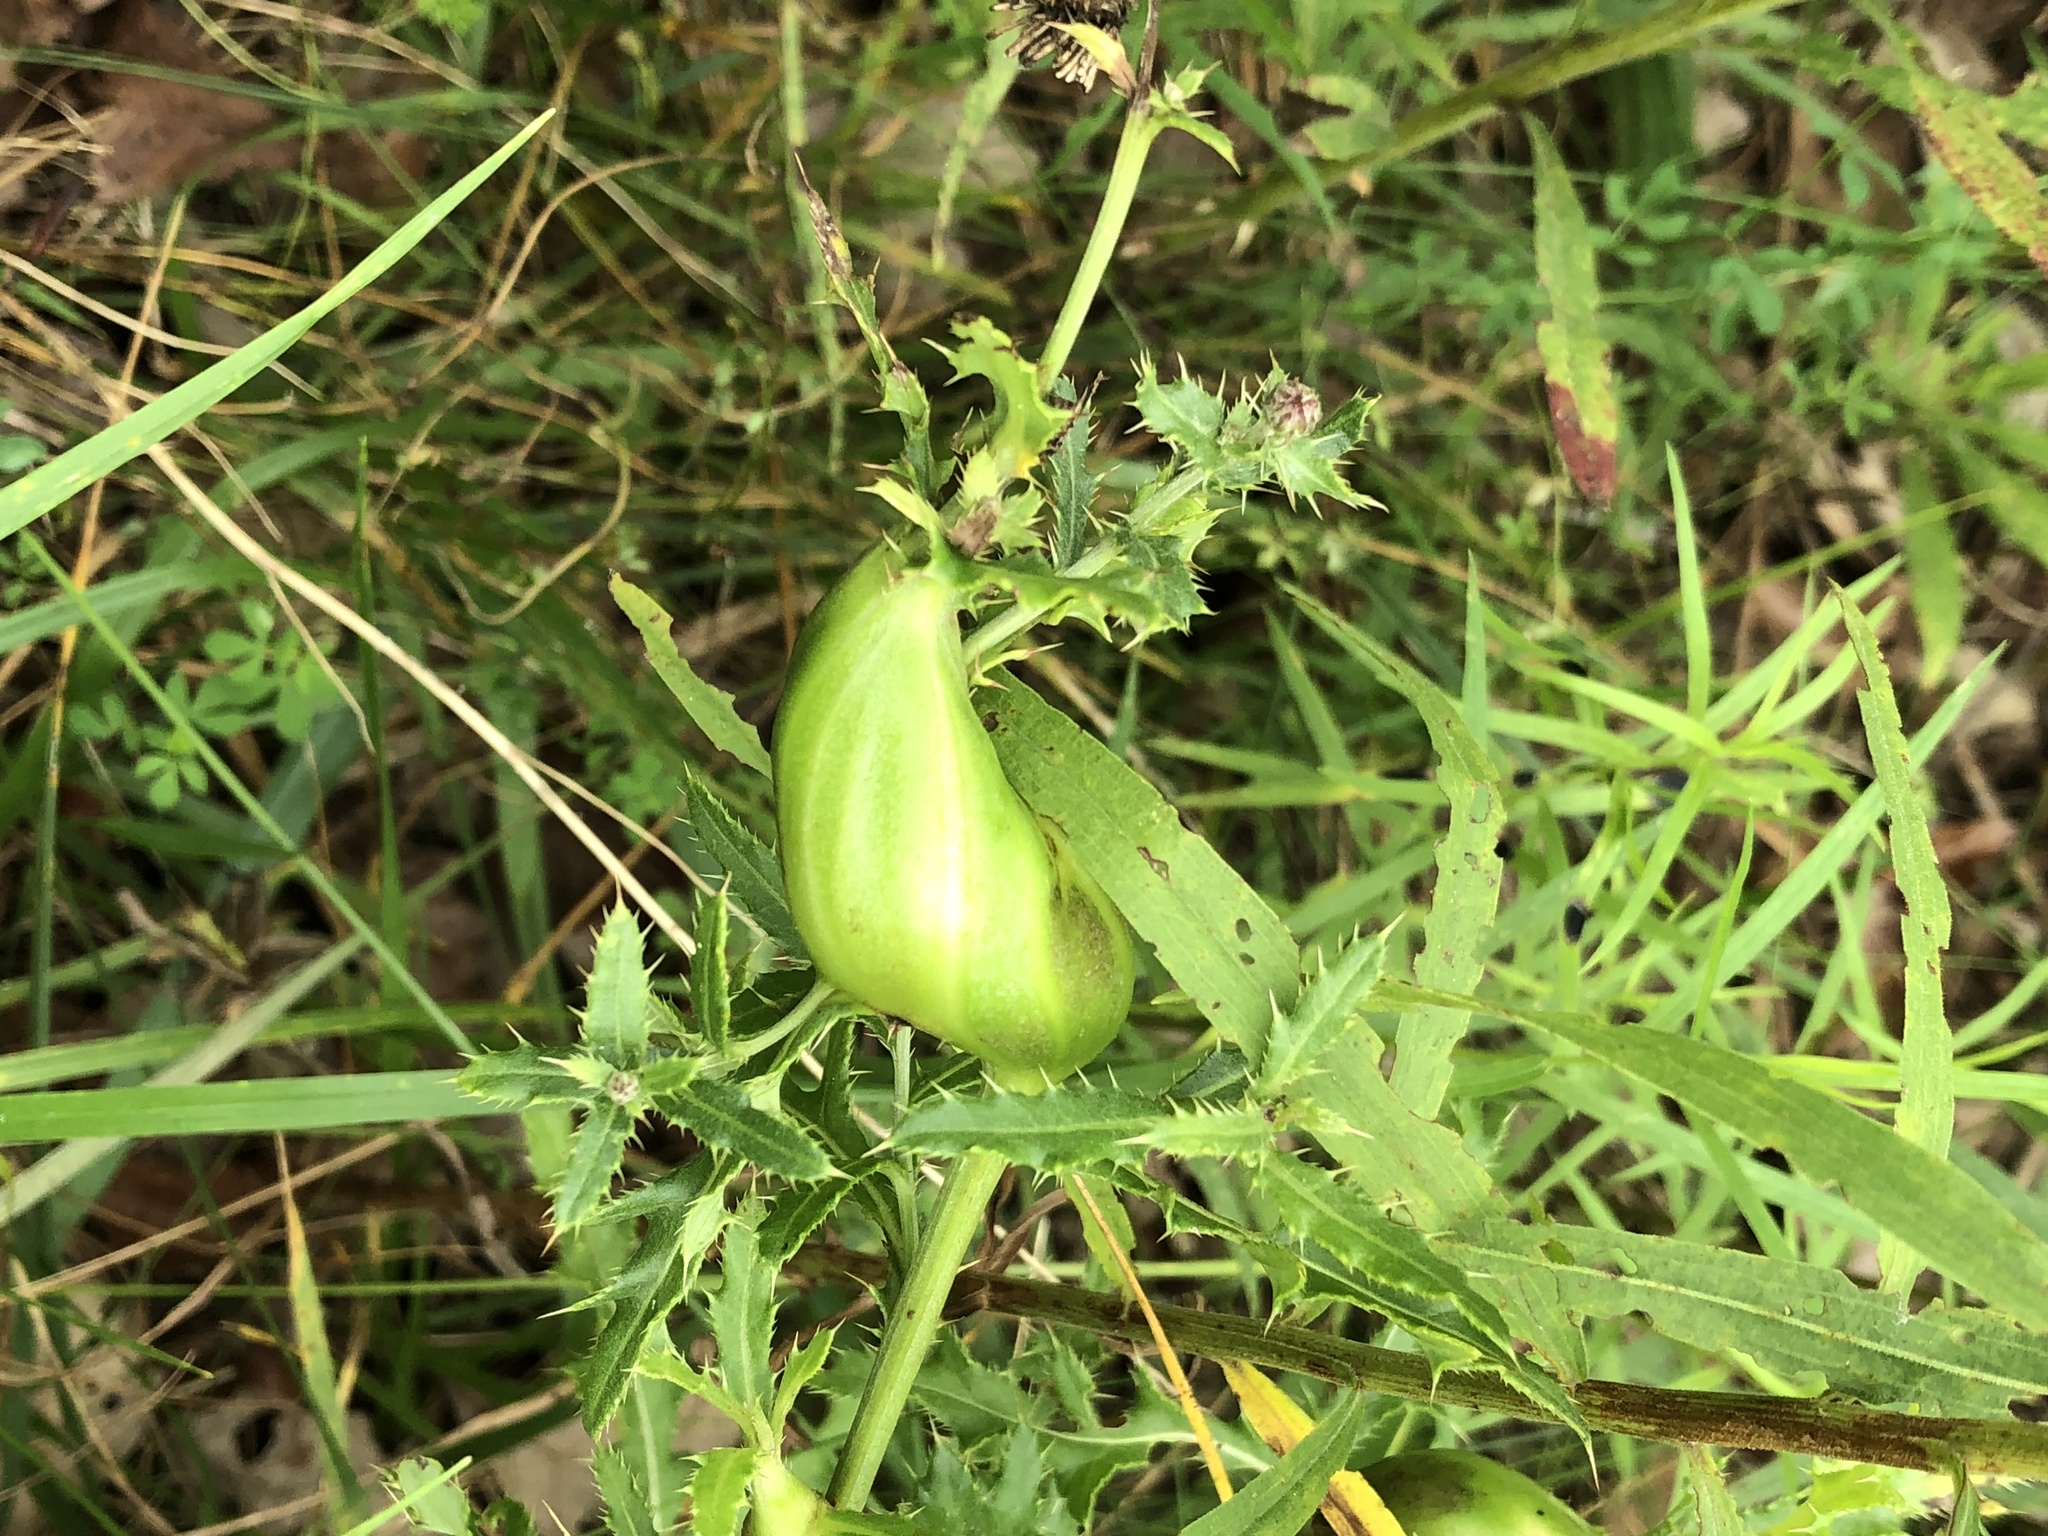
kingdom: Animalia
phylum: Arthropoda
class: Insecta
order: Diptera
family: Tephritidae
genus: Urophora
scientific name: Urophora cardui
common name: Fruit fly
